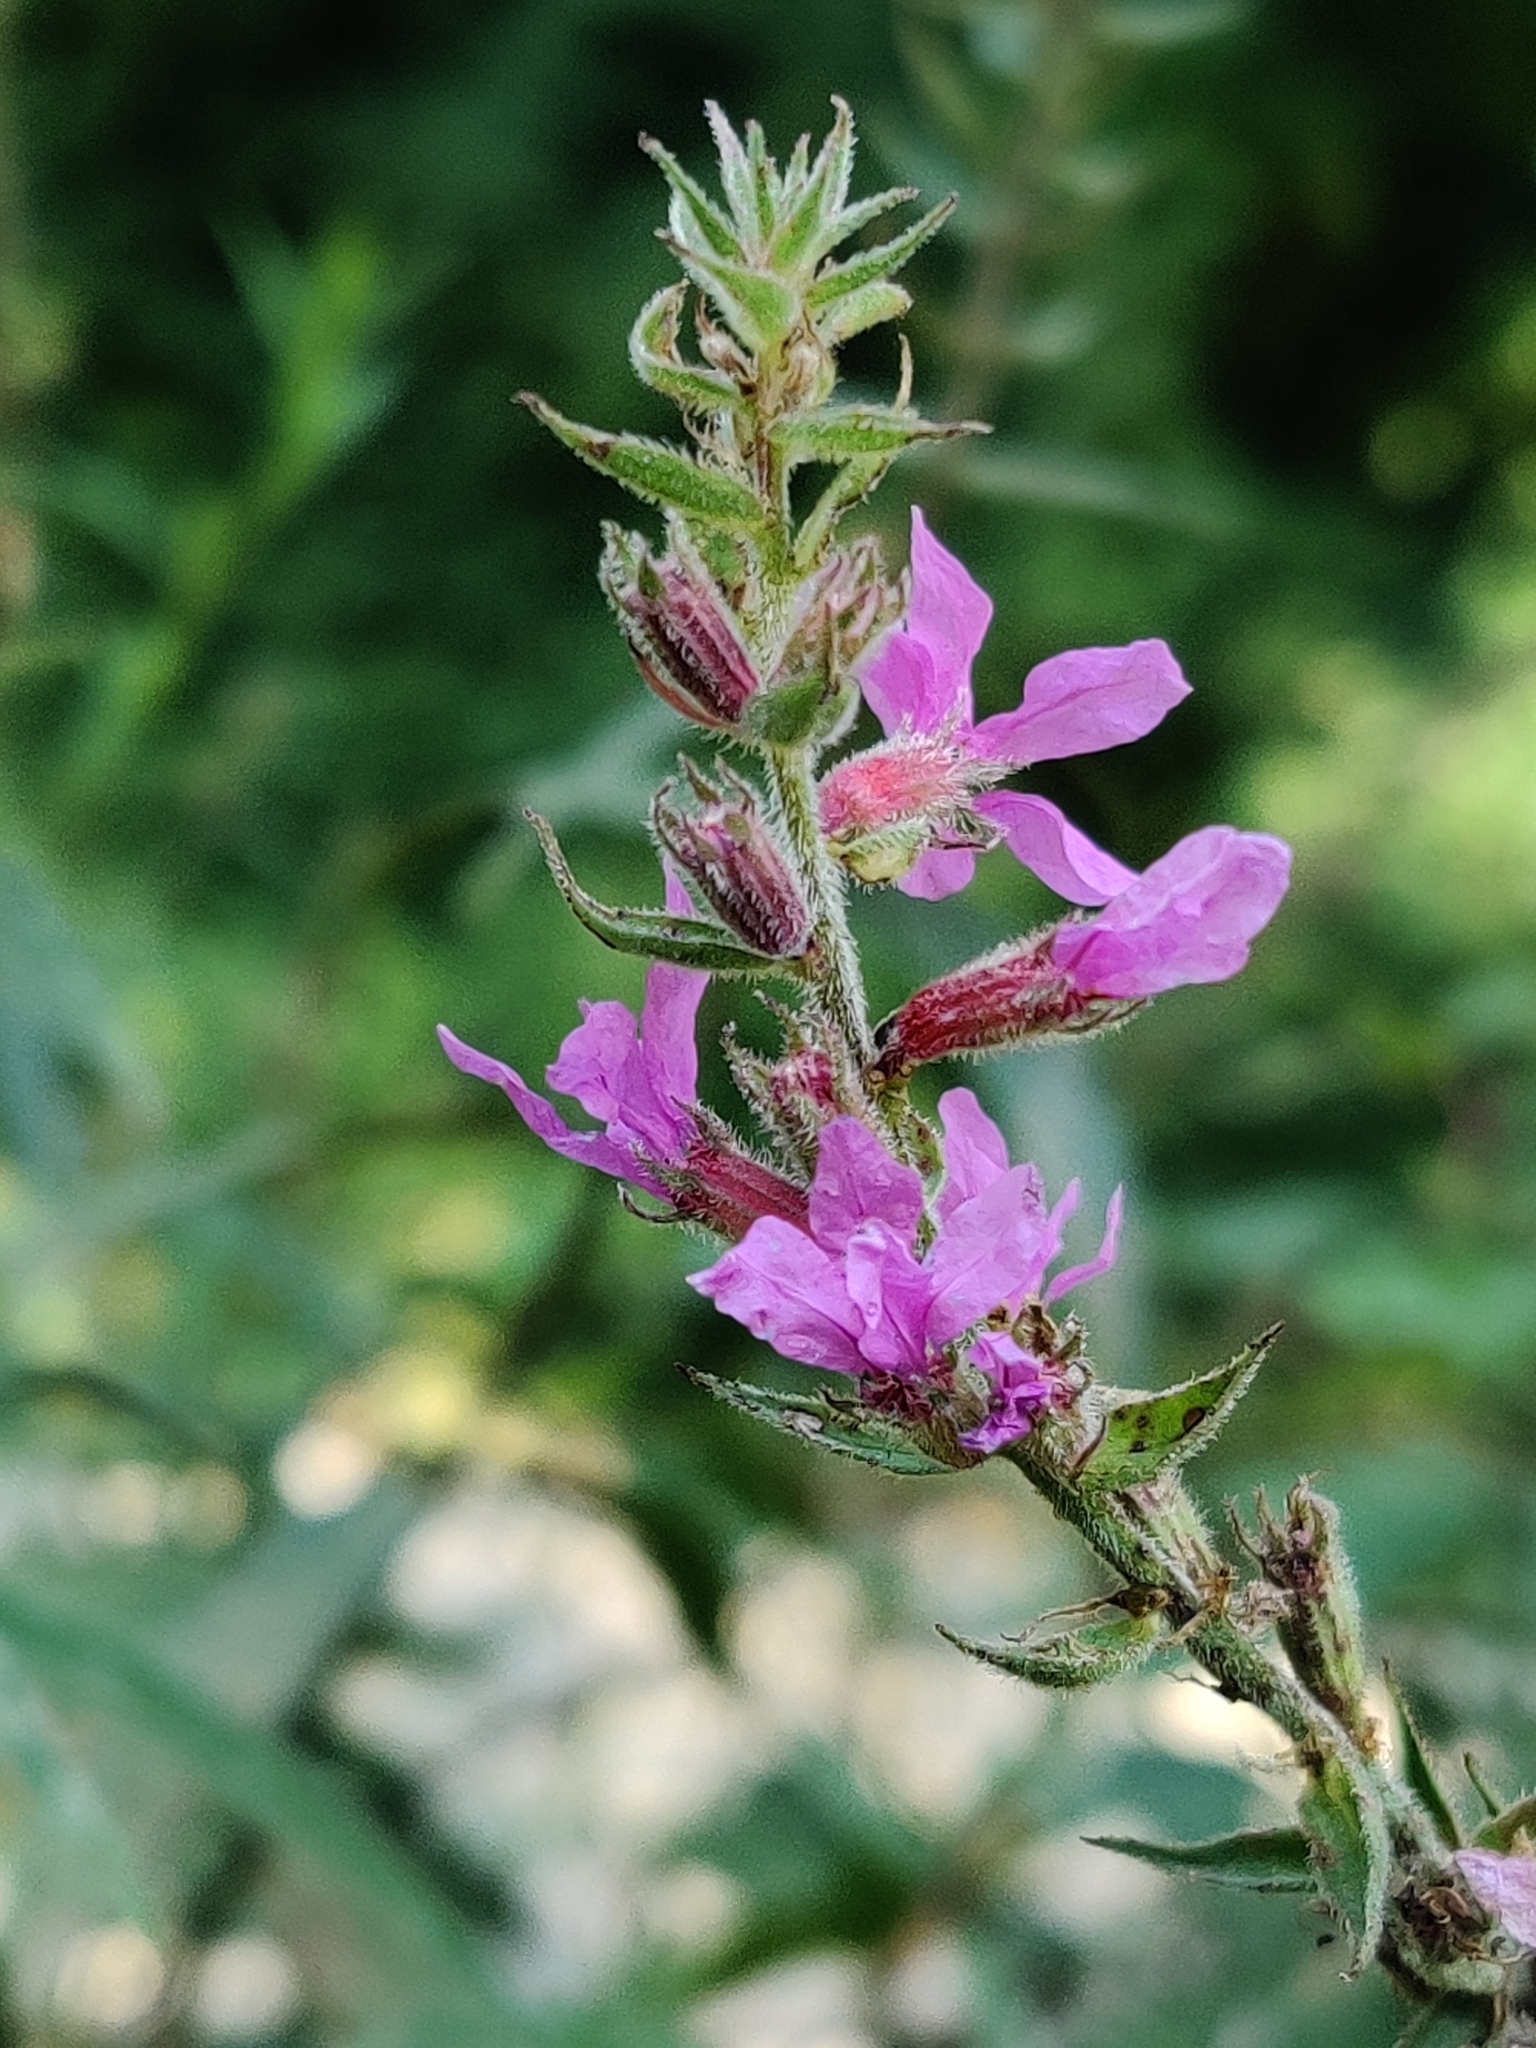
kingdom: Plantae
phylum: Tracheophyta
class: Magnoliopsida
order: Myrtales
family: Lythraceae
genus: Lythrum
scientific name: Lythrum salicaria
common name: Purple loosestrife
